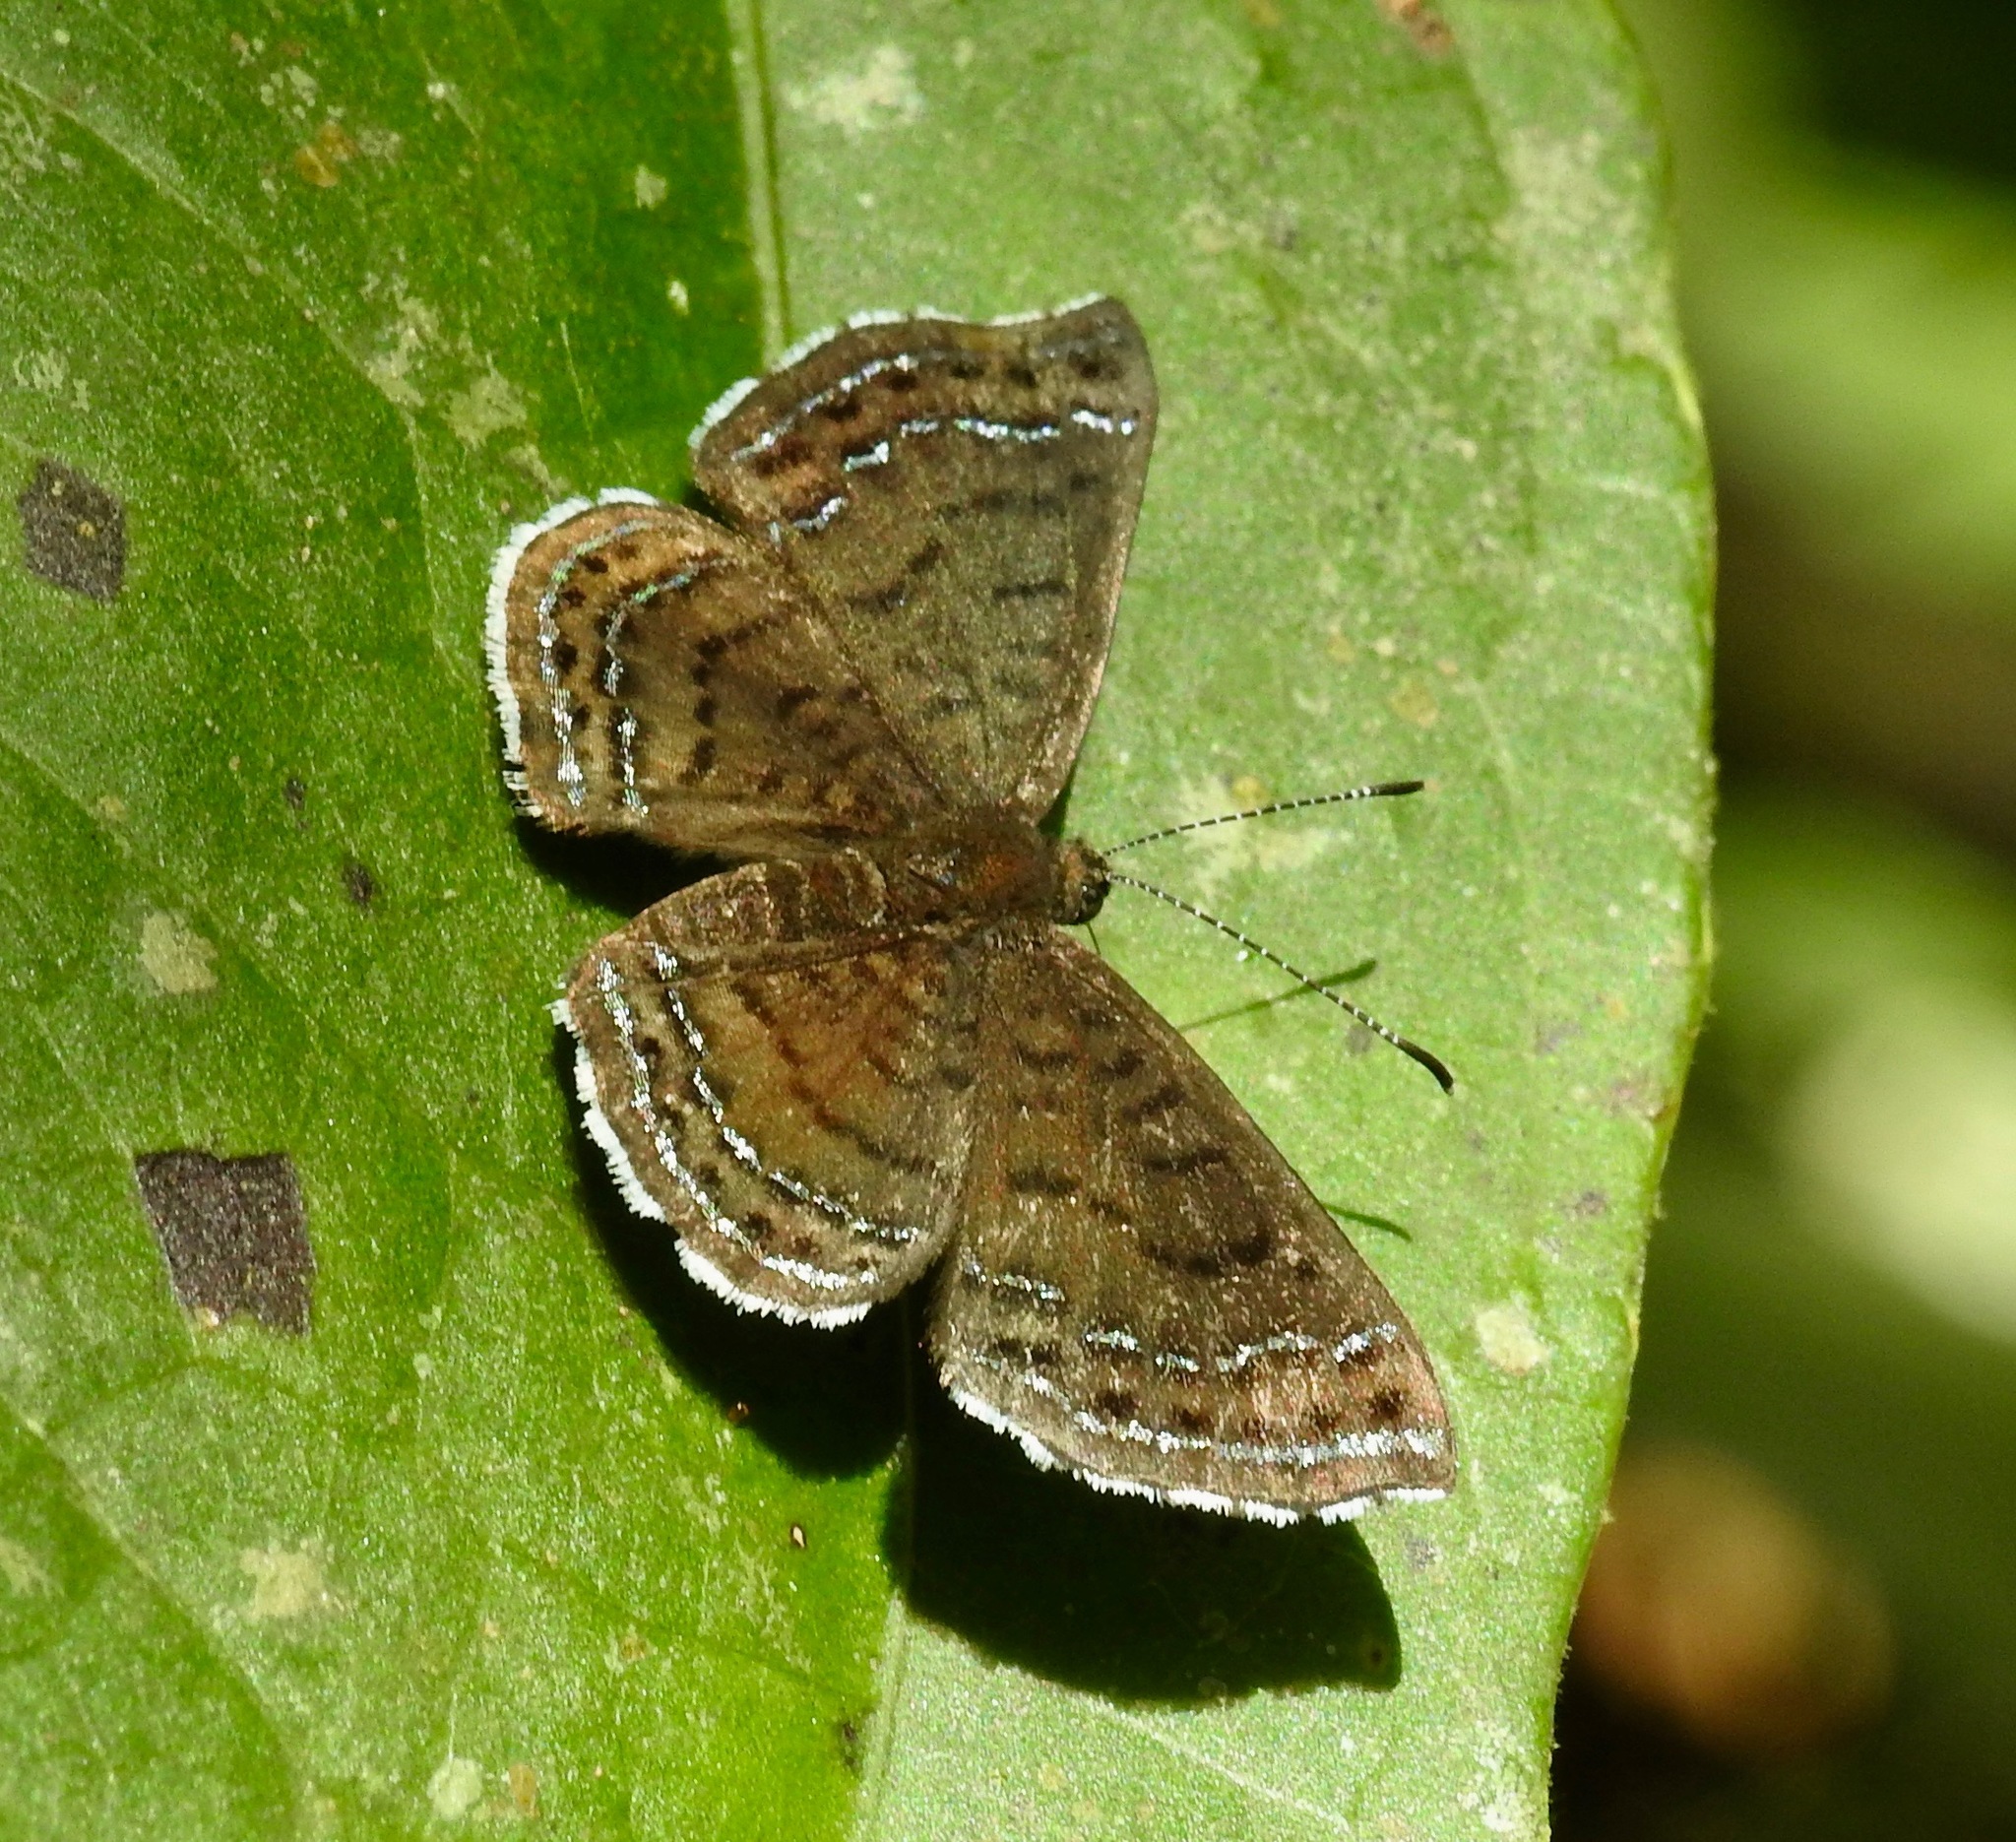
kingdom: Animalia
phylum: Arthropoda
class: Insecta
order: Lepidoptera
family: Lycaenidae
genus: Emesis
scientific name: Emesis irina
